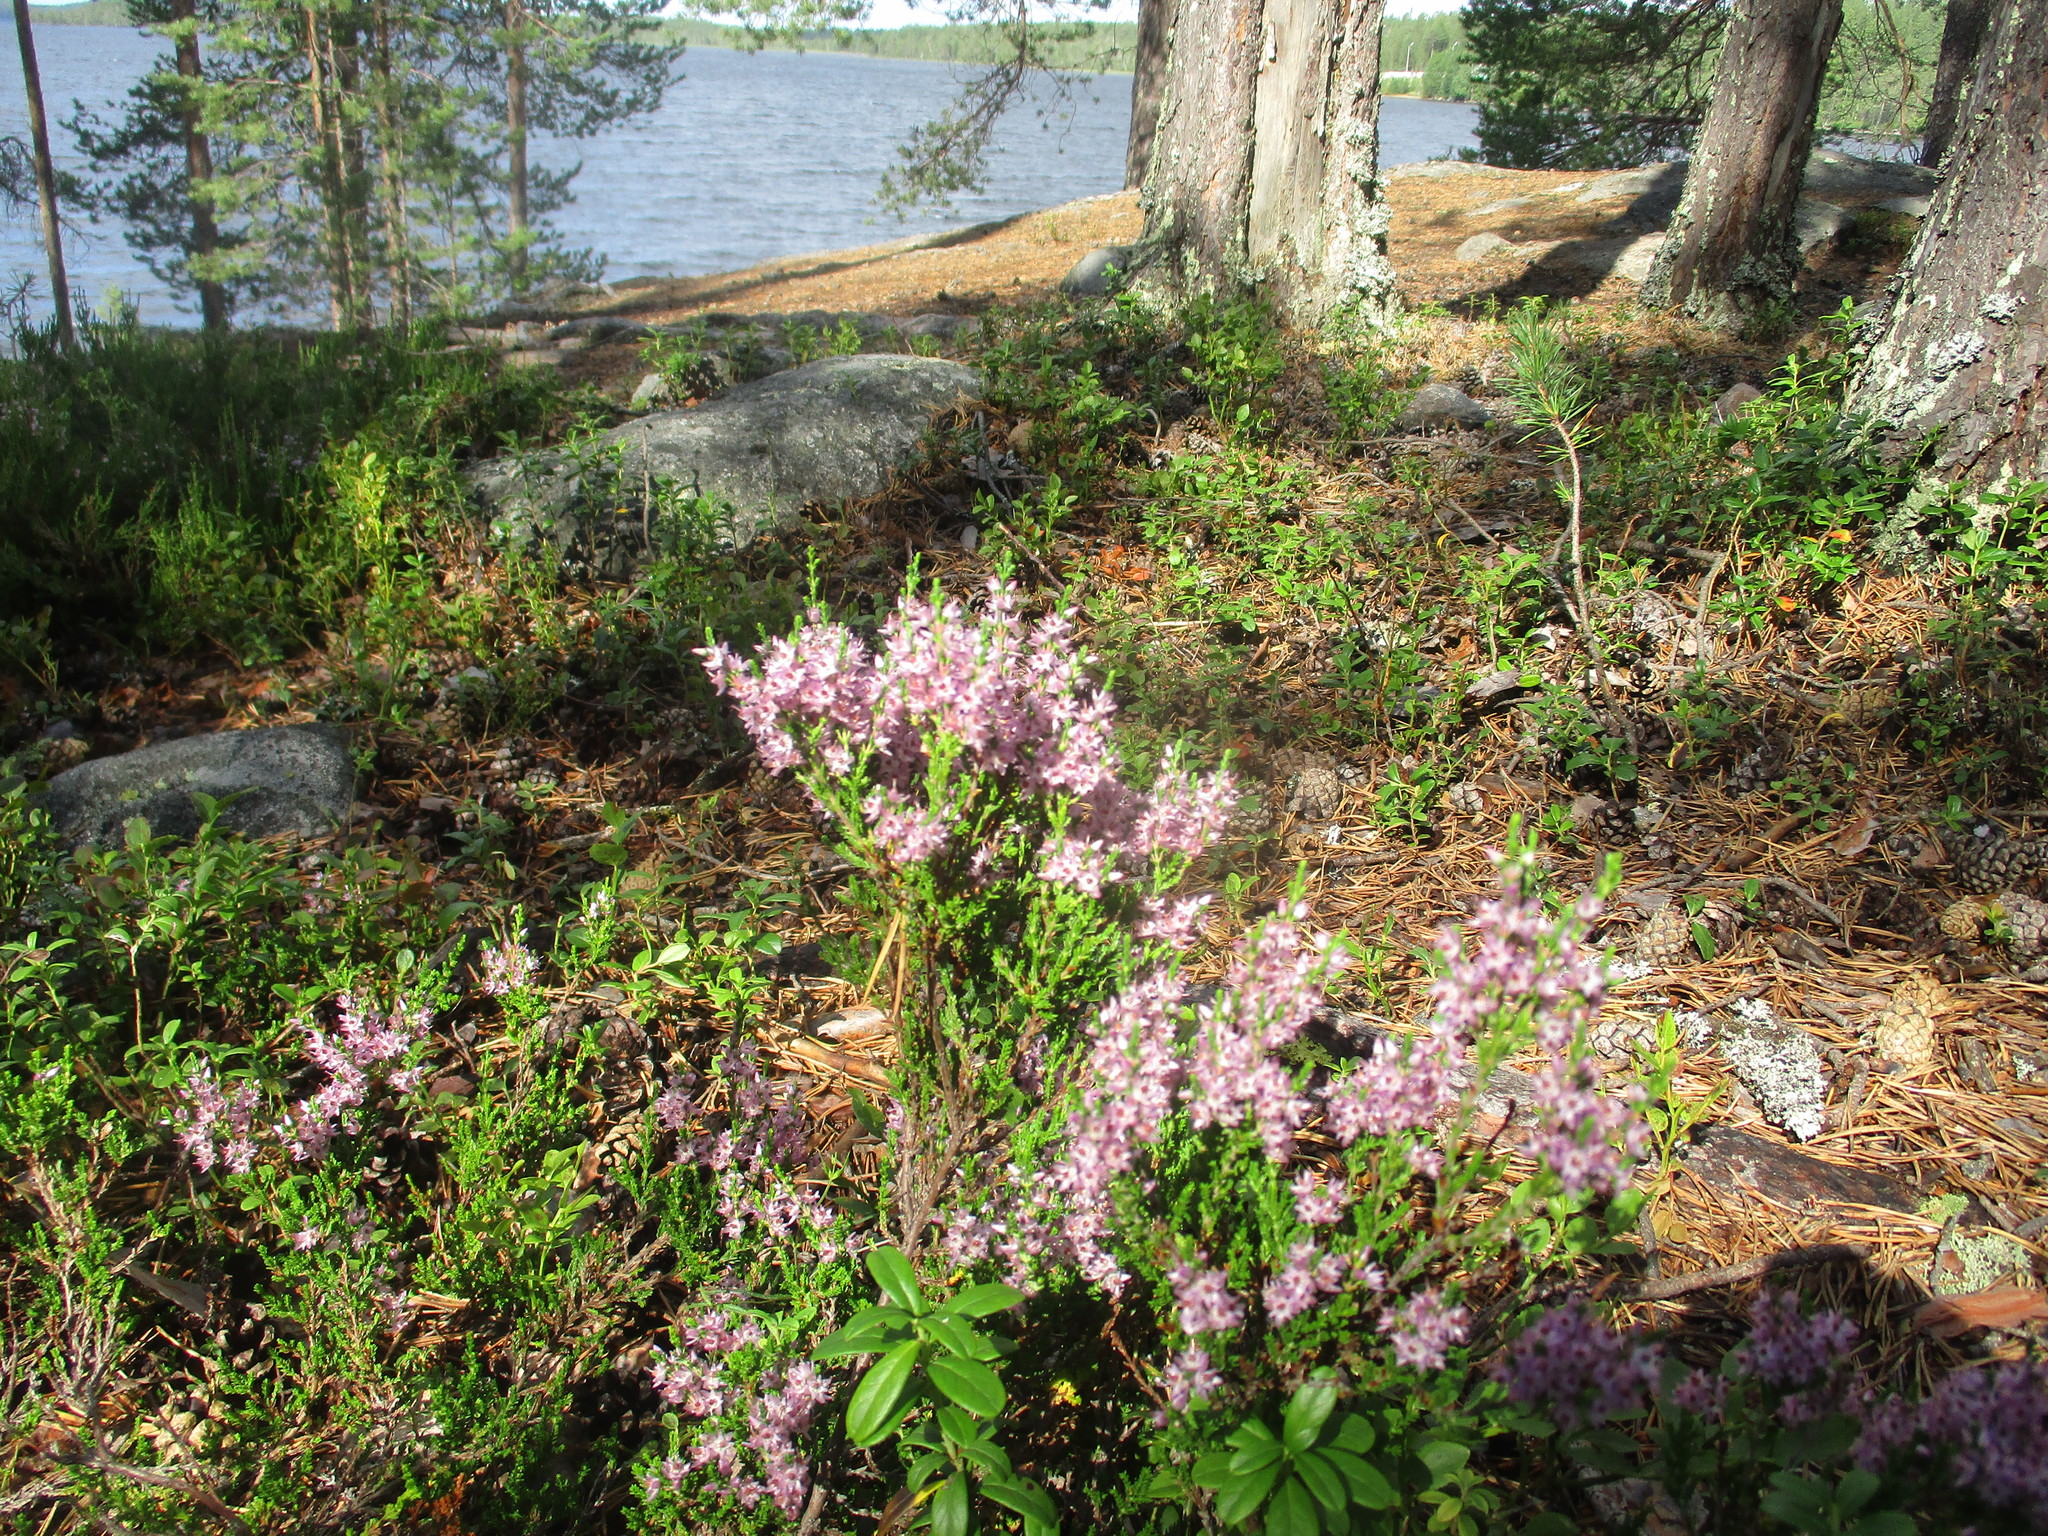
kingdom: Plantae
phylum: Tracheophyta
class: Magnoliopsida
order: Ericales
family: Ericaceae
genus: Calluna
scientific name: Calluna vulgaris
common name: Heather
